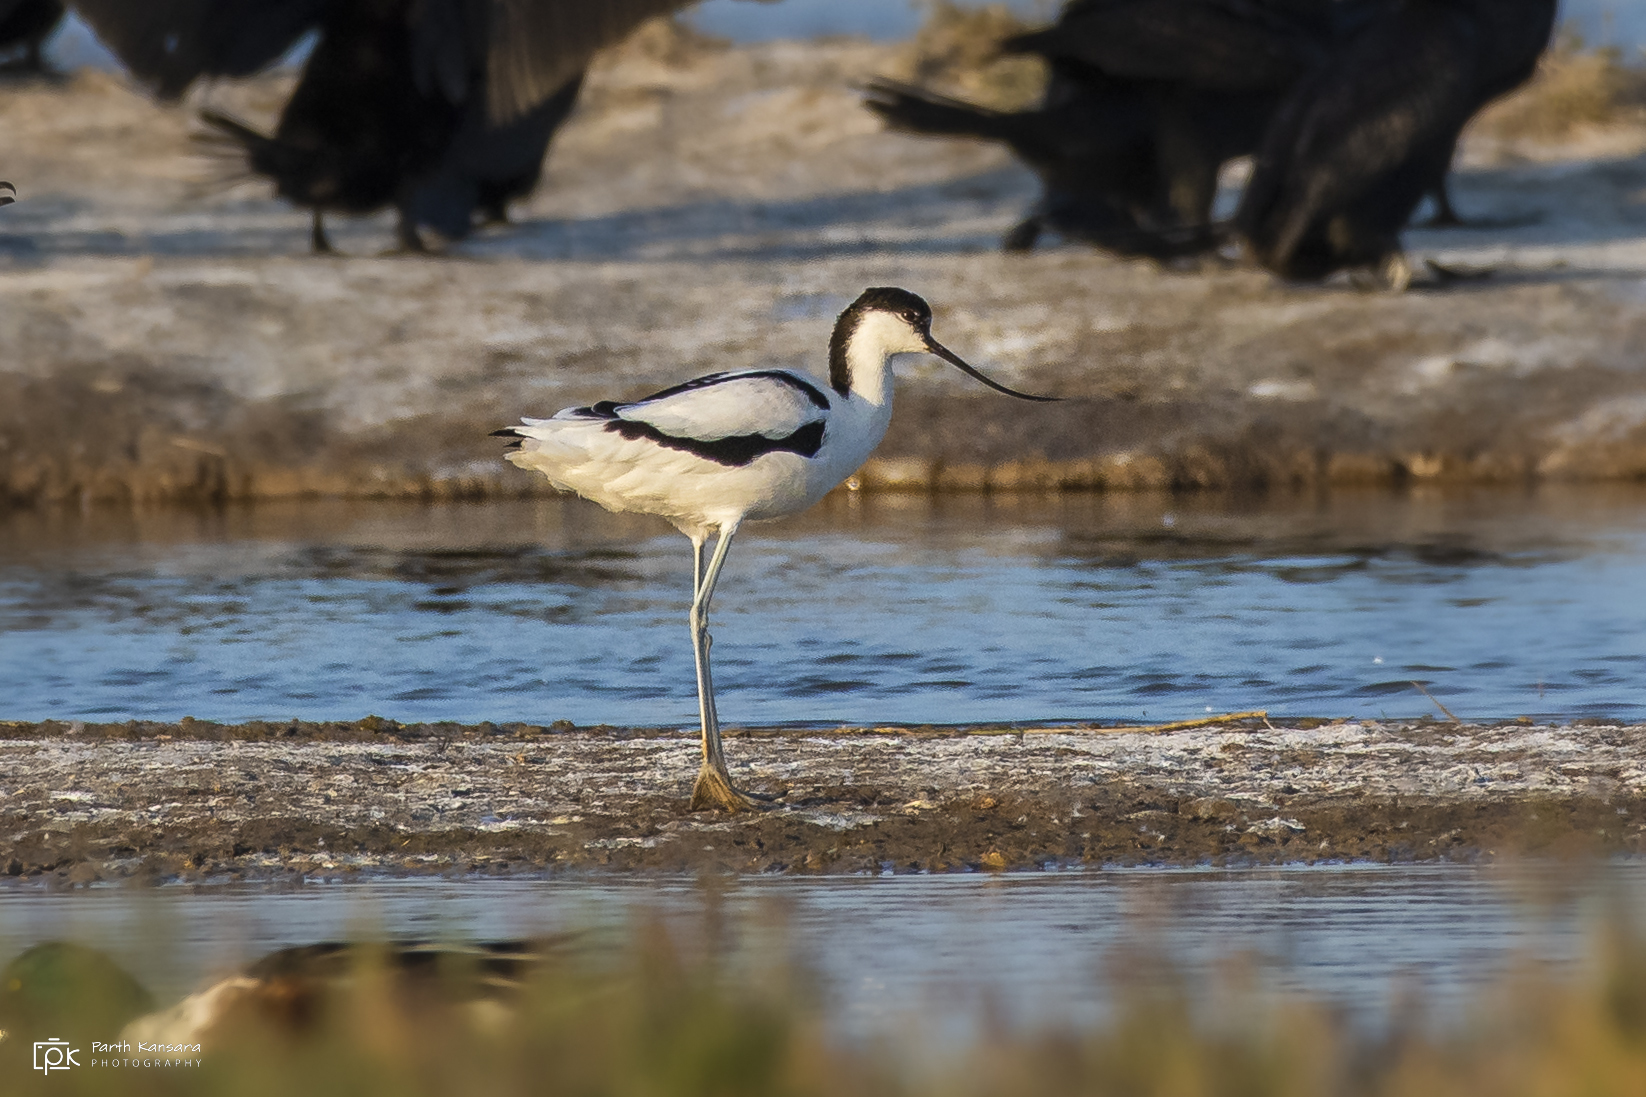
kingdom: Animalia
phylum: Chordata
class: Aves
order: Charadriiformes
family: Recurvirostridae
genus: Recurvirostra
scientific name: Recurvirostra avosetta
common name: Pied avocet
